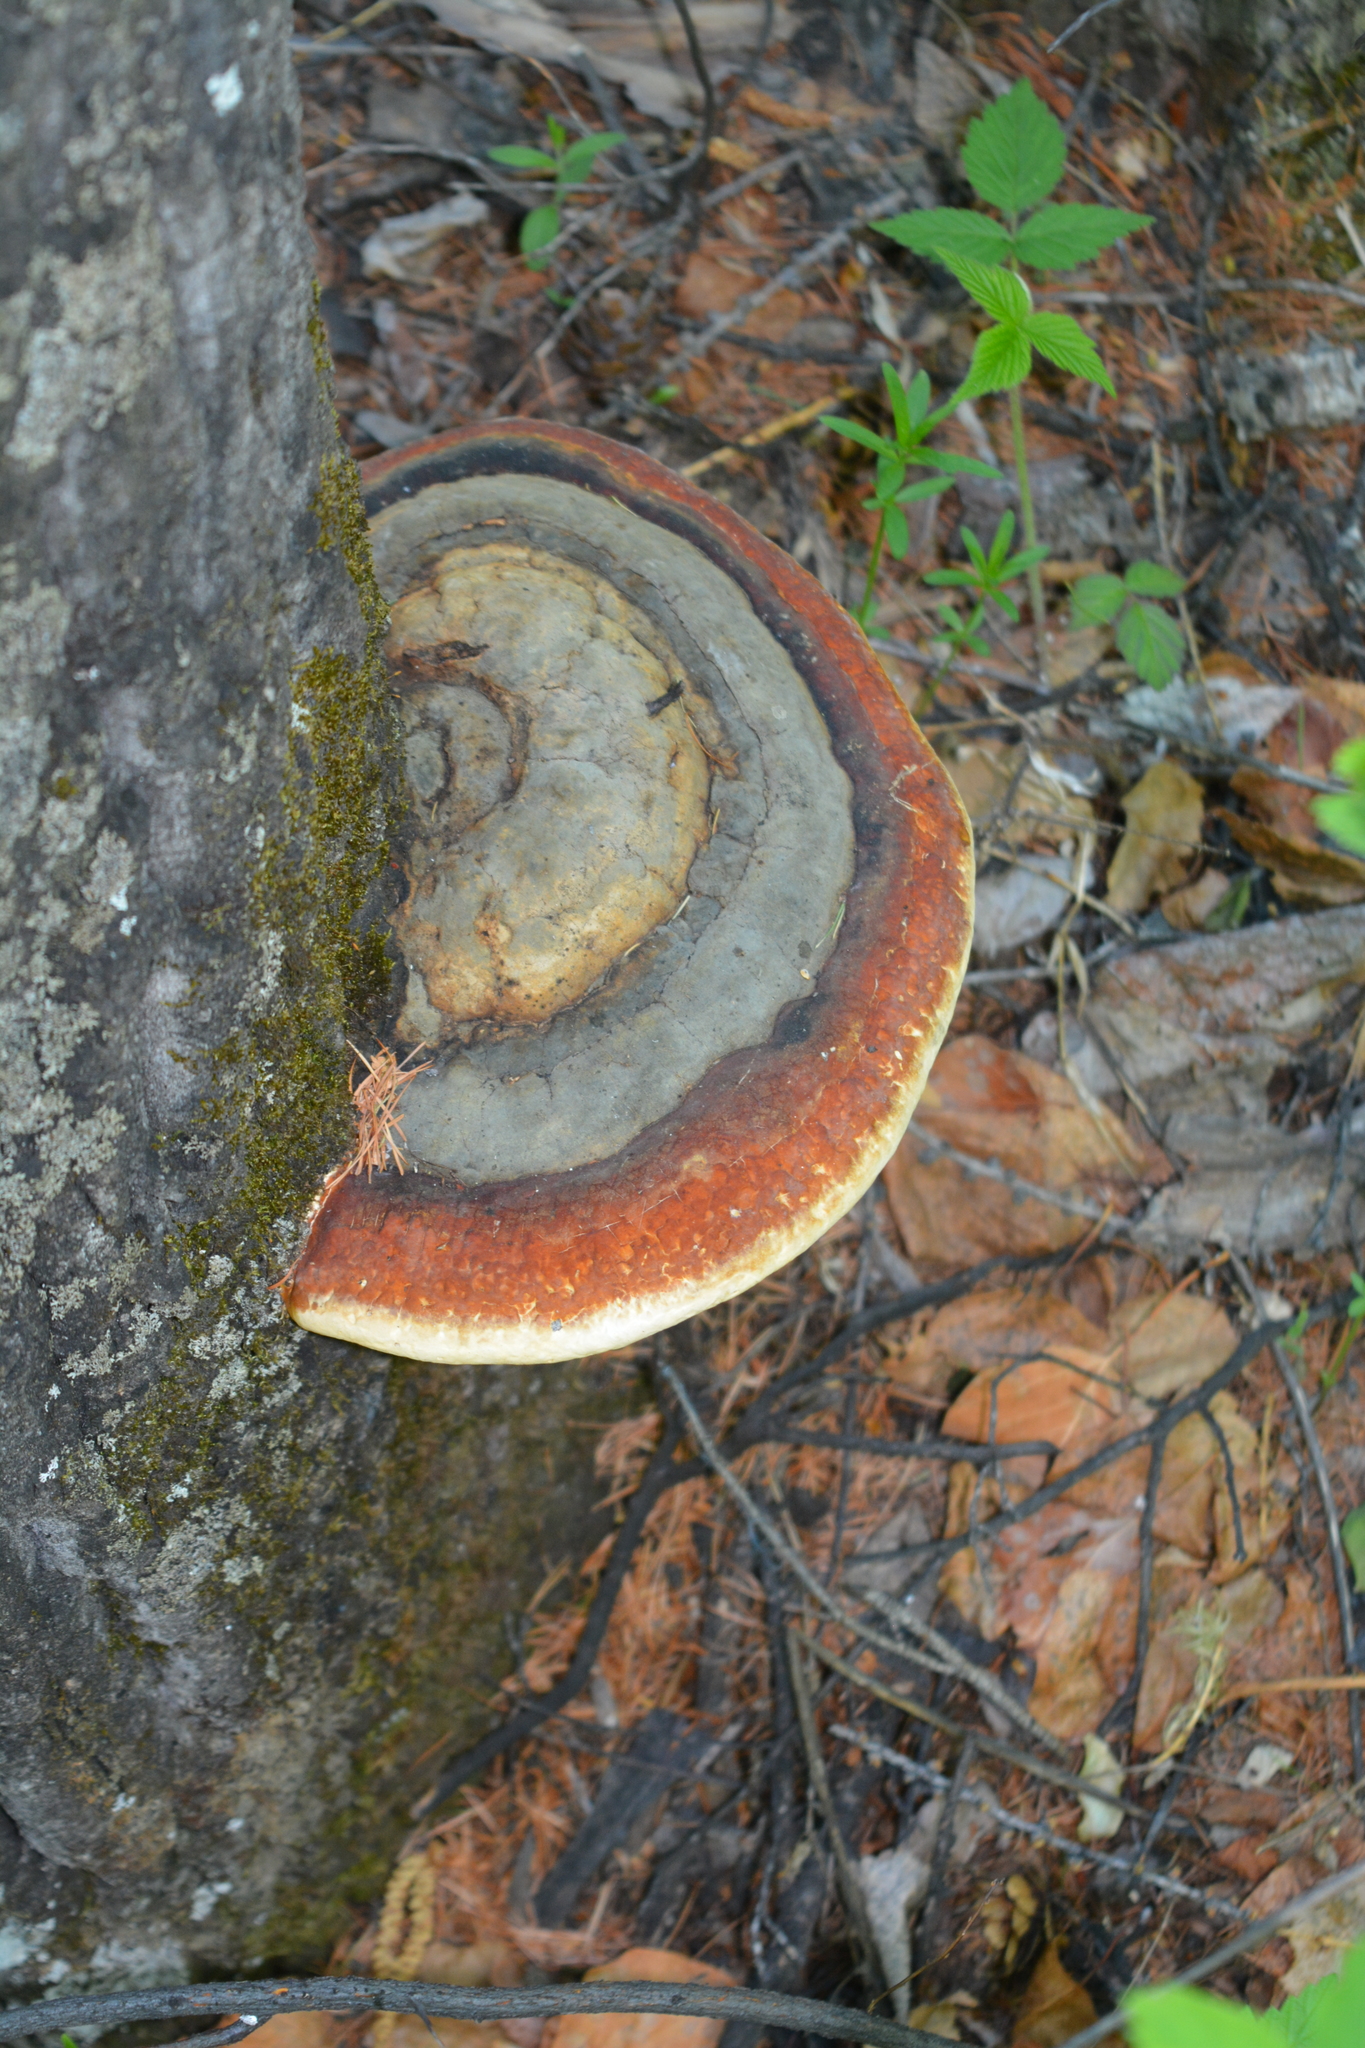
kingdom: Fungi
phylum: Basidiomycota
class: Agaricomycetes
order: Polyporales
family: Fomitopsidaceae
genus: Fomitopsis
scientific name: Fomitopsis pinicola
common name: Red-belted bracket
